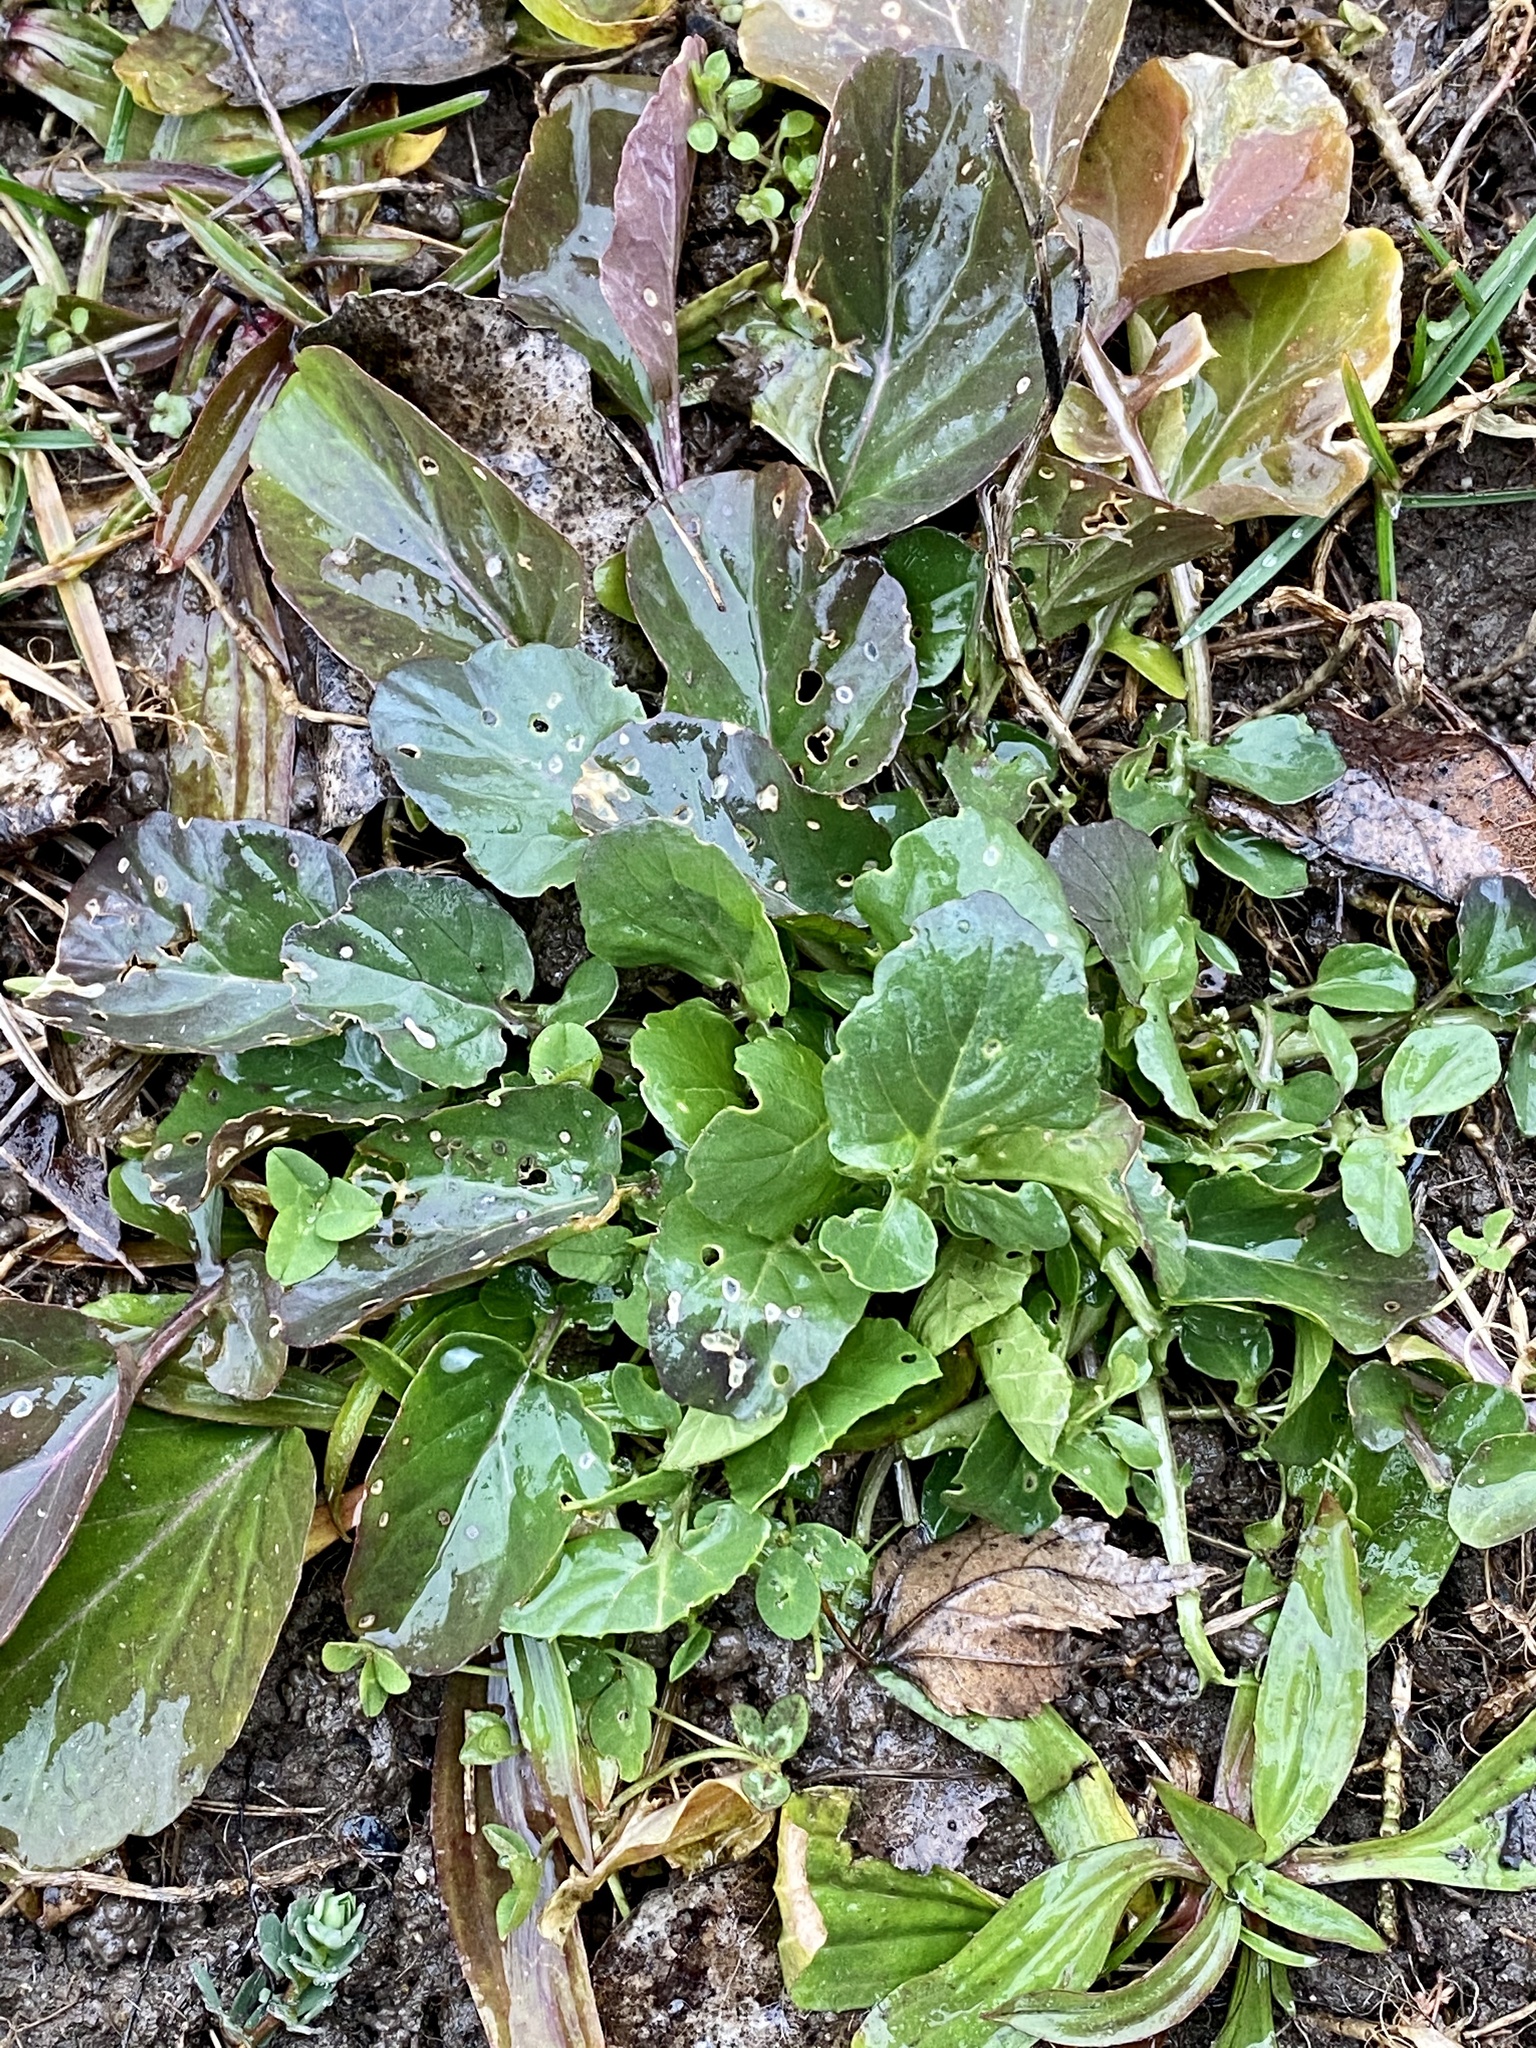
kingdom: Plantae
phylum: Tracheophyta
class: Magnoliopsida
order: Brassicales
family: Brassicaceae
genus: Barbarea
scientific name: Barbarea vulgaris
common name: Cressy-greens
